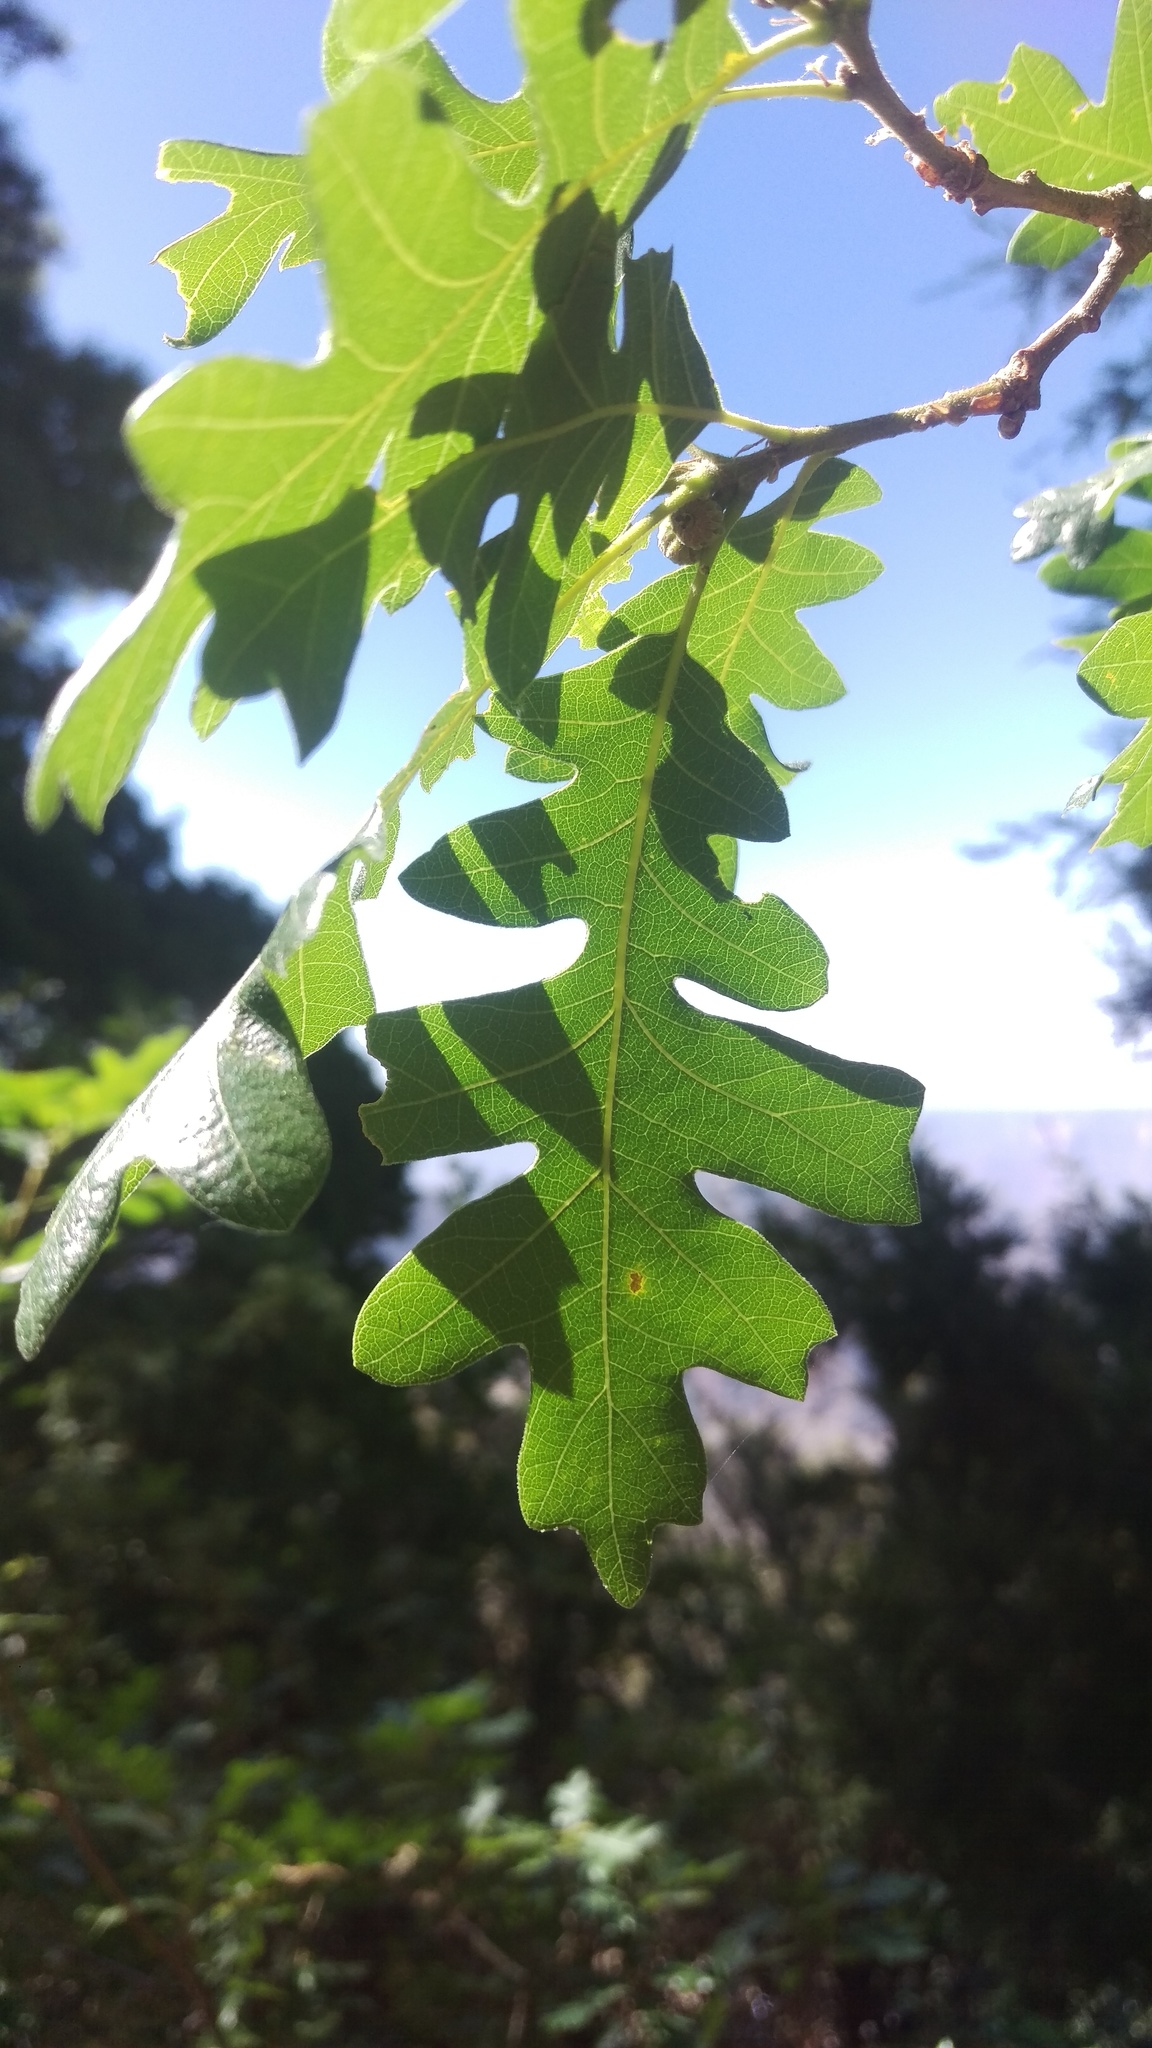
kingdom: Plantae
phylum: Tracheophyta
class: Magnoliopsida
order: Fagales
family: Fagaceae
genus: Quercus
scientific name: Quercus gambelii
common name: Gambel oak
